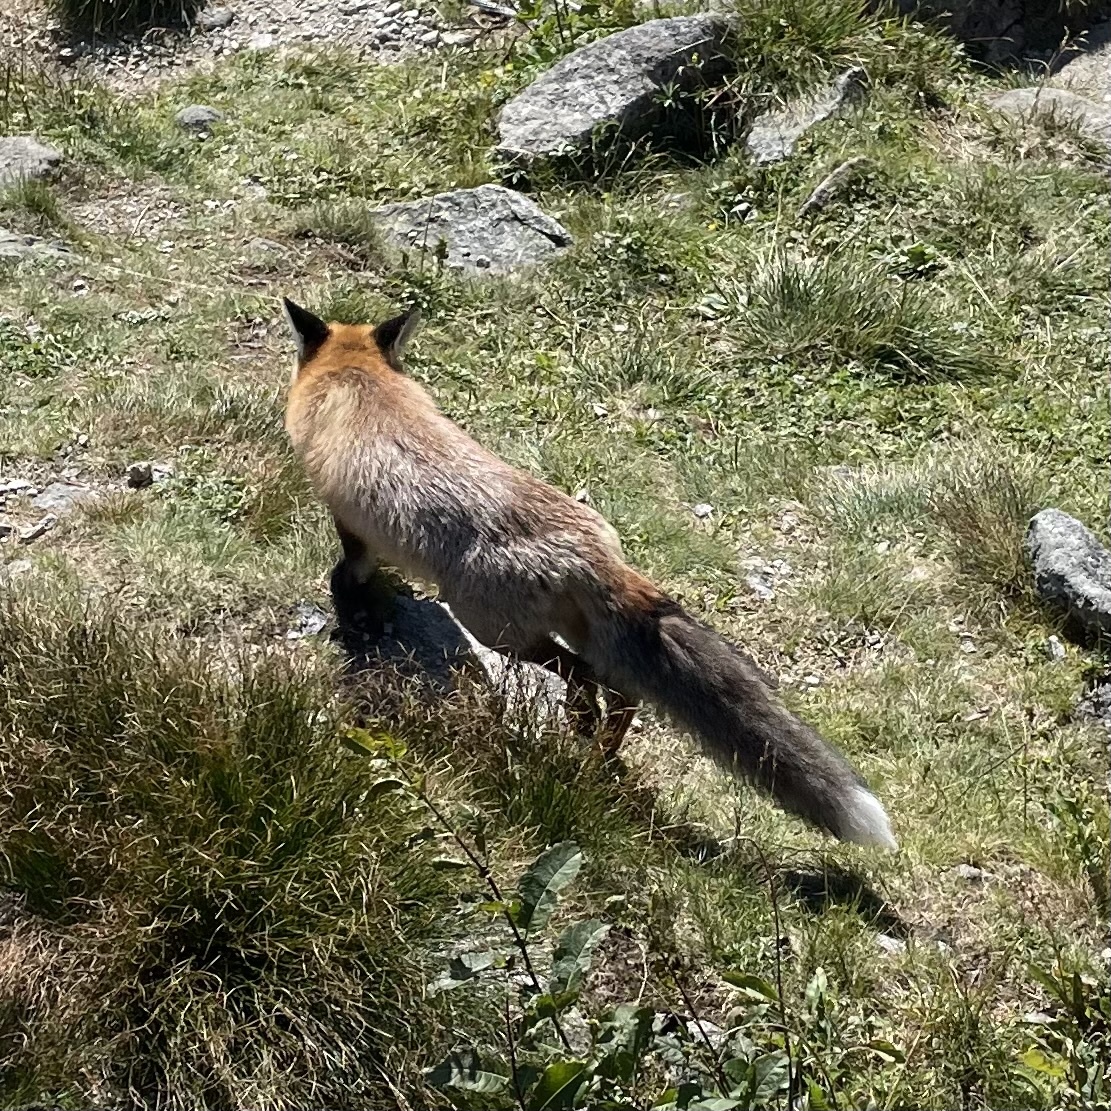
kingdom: Animalia
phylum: Chordata
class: Mammalia
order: Carnivora
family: Canidae
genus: Vulpes
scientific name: Vulpes vulpes
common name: Red fox
